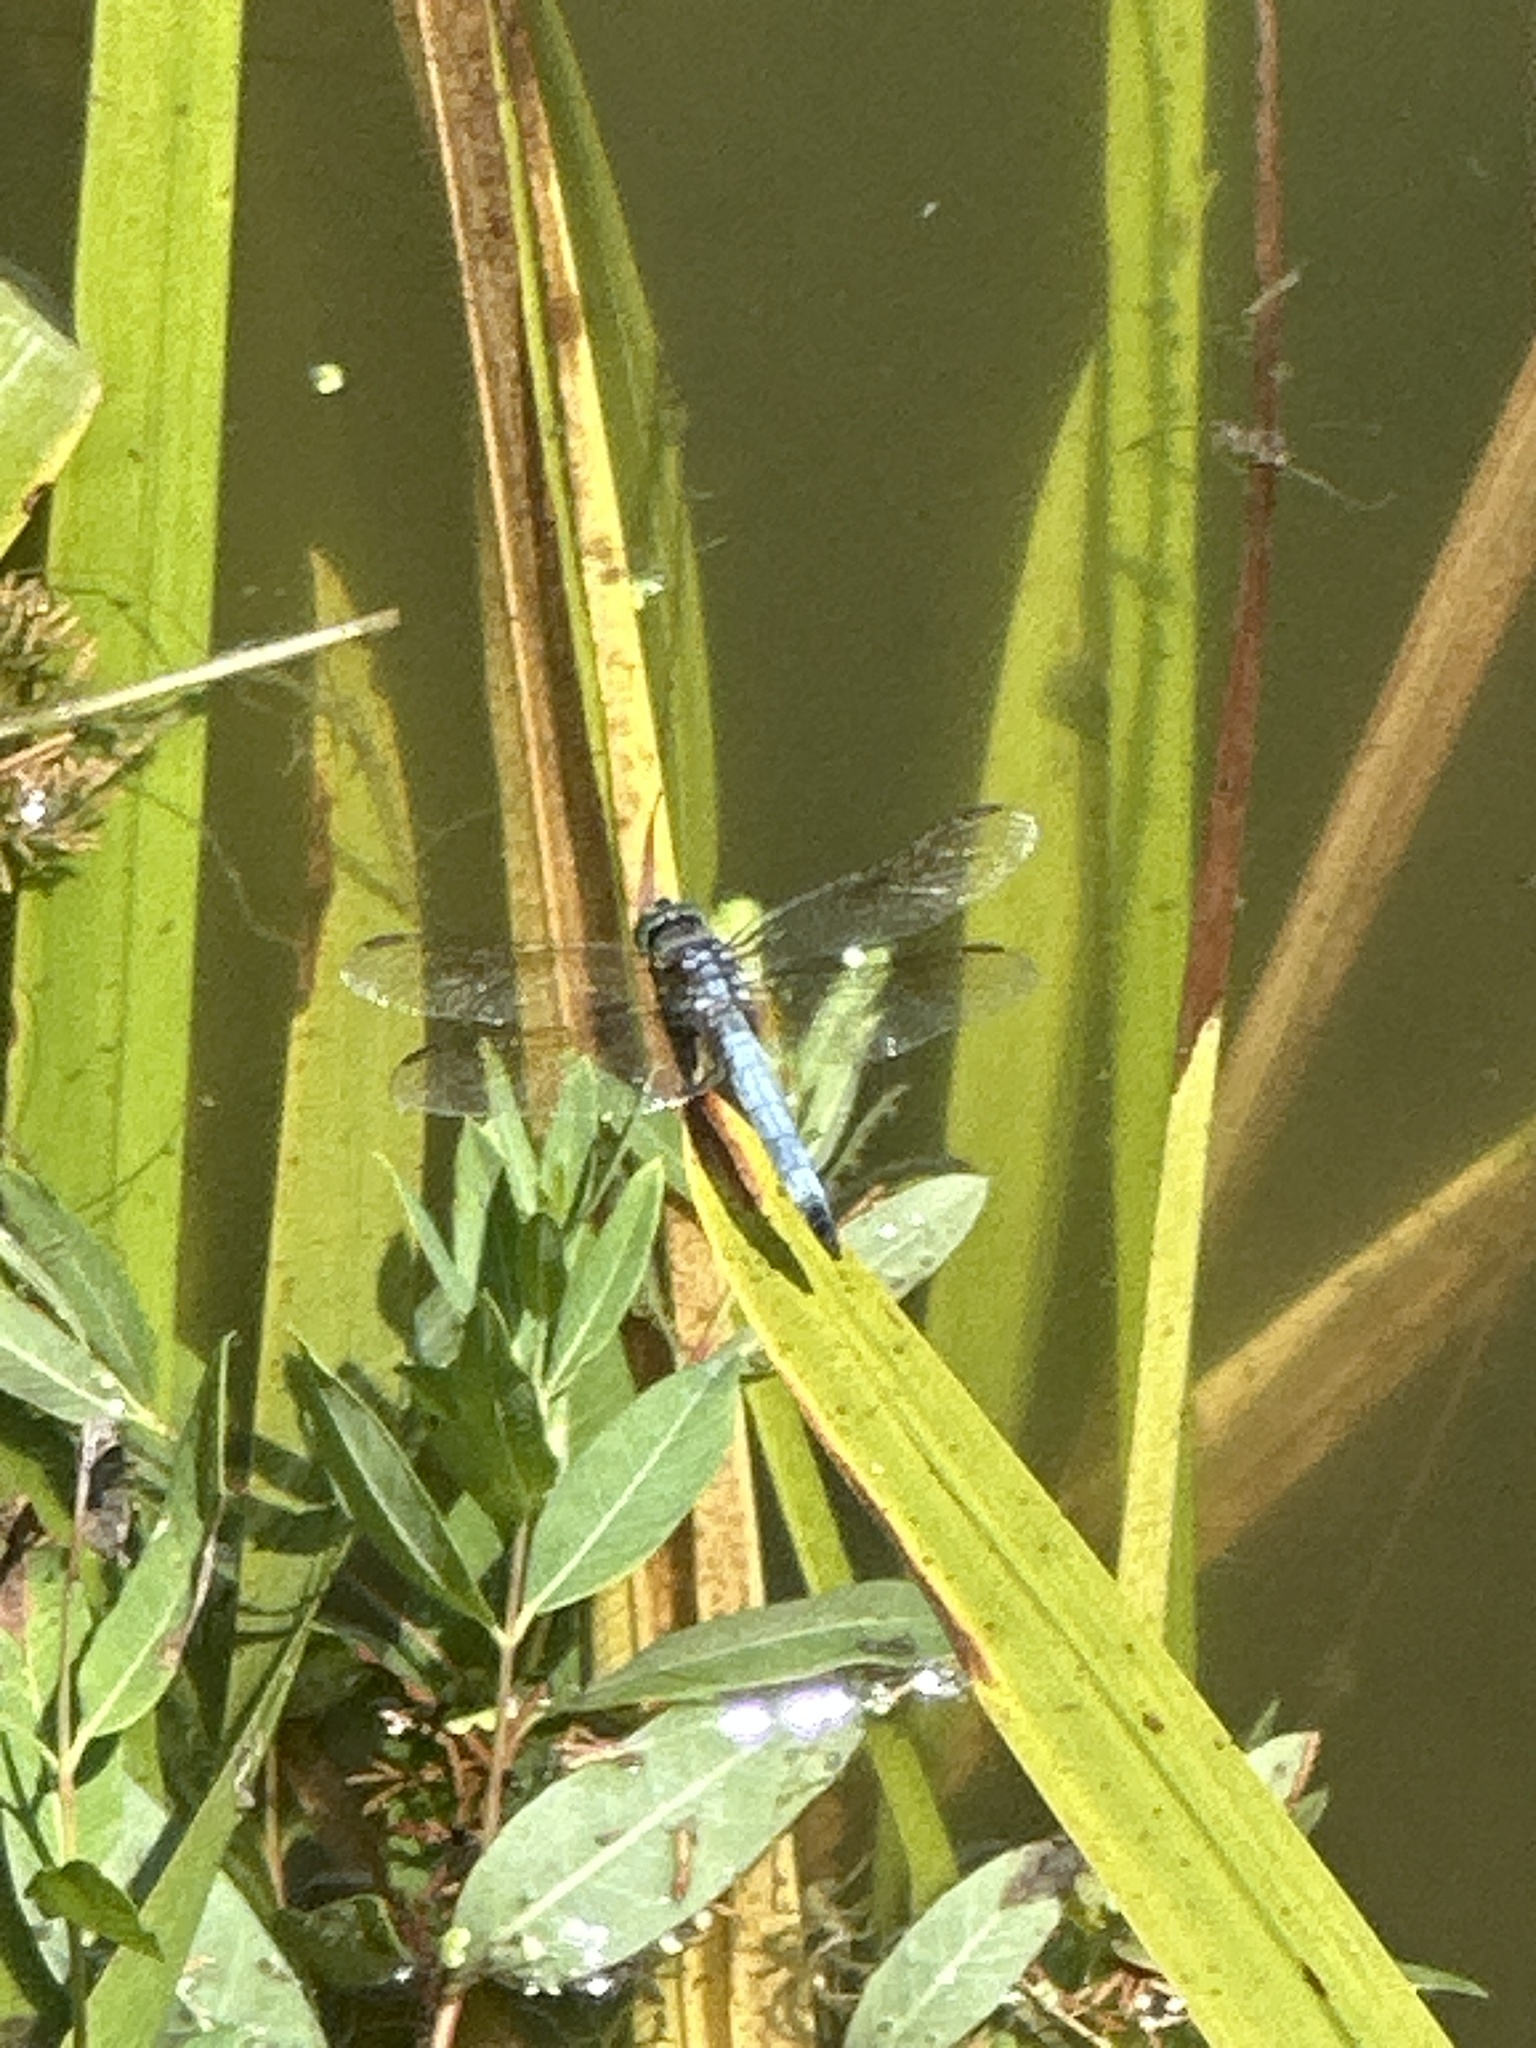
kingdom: Animalia
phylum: Arthropoda
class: Insecta
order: Odonata
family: Libellulidae
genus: Pachydiplax
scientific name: Pachydiplax longipennis
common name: Blue dasher
